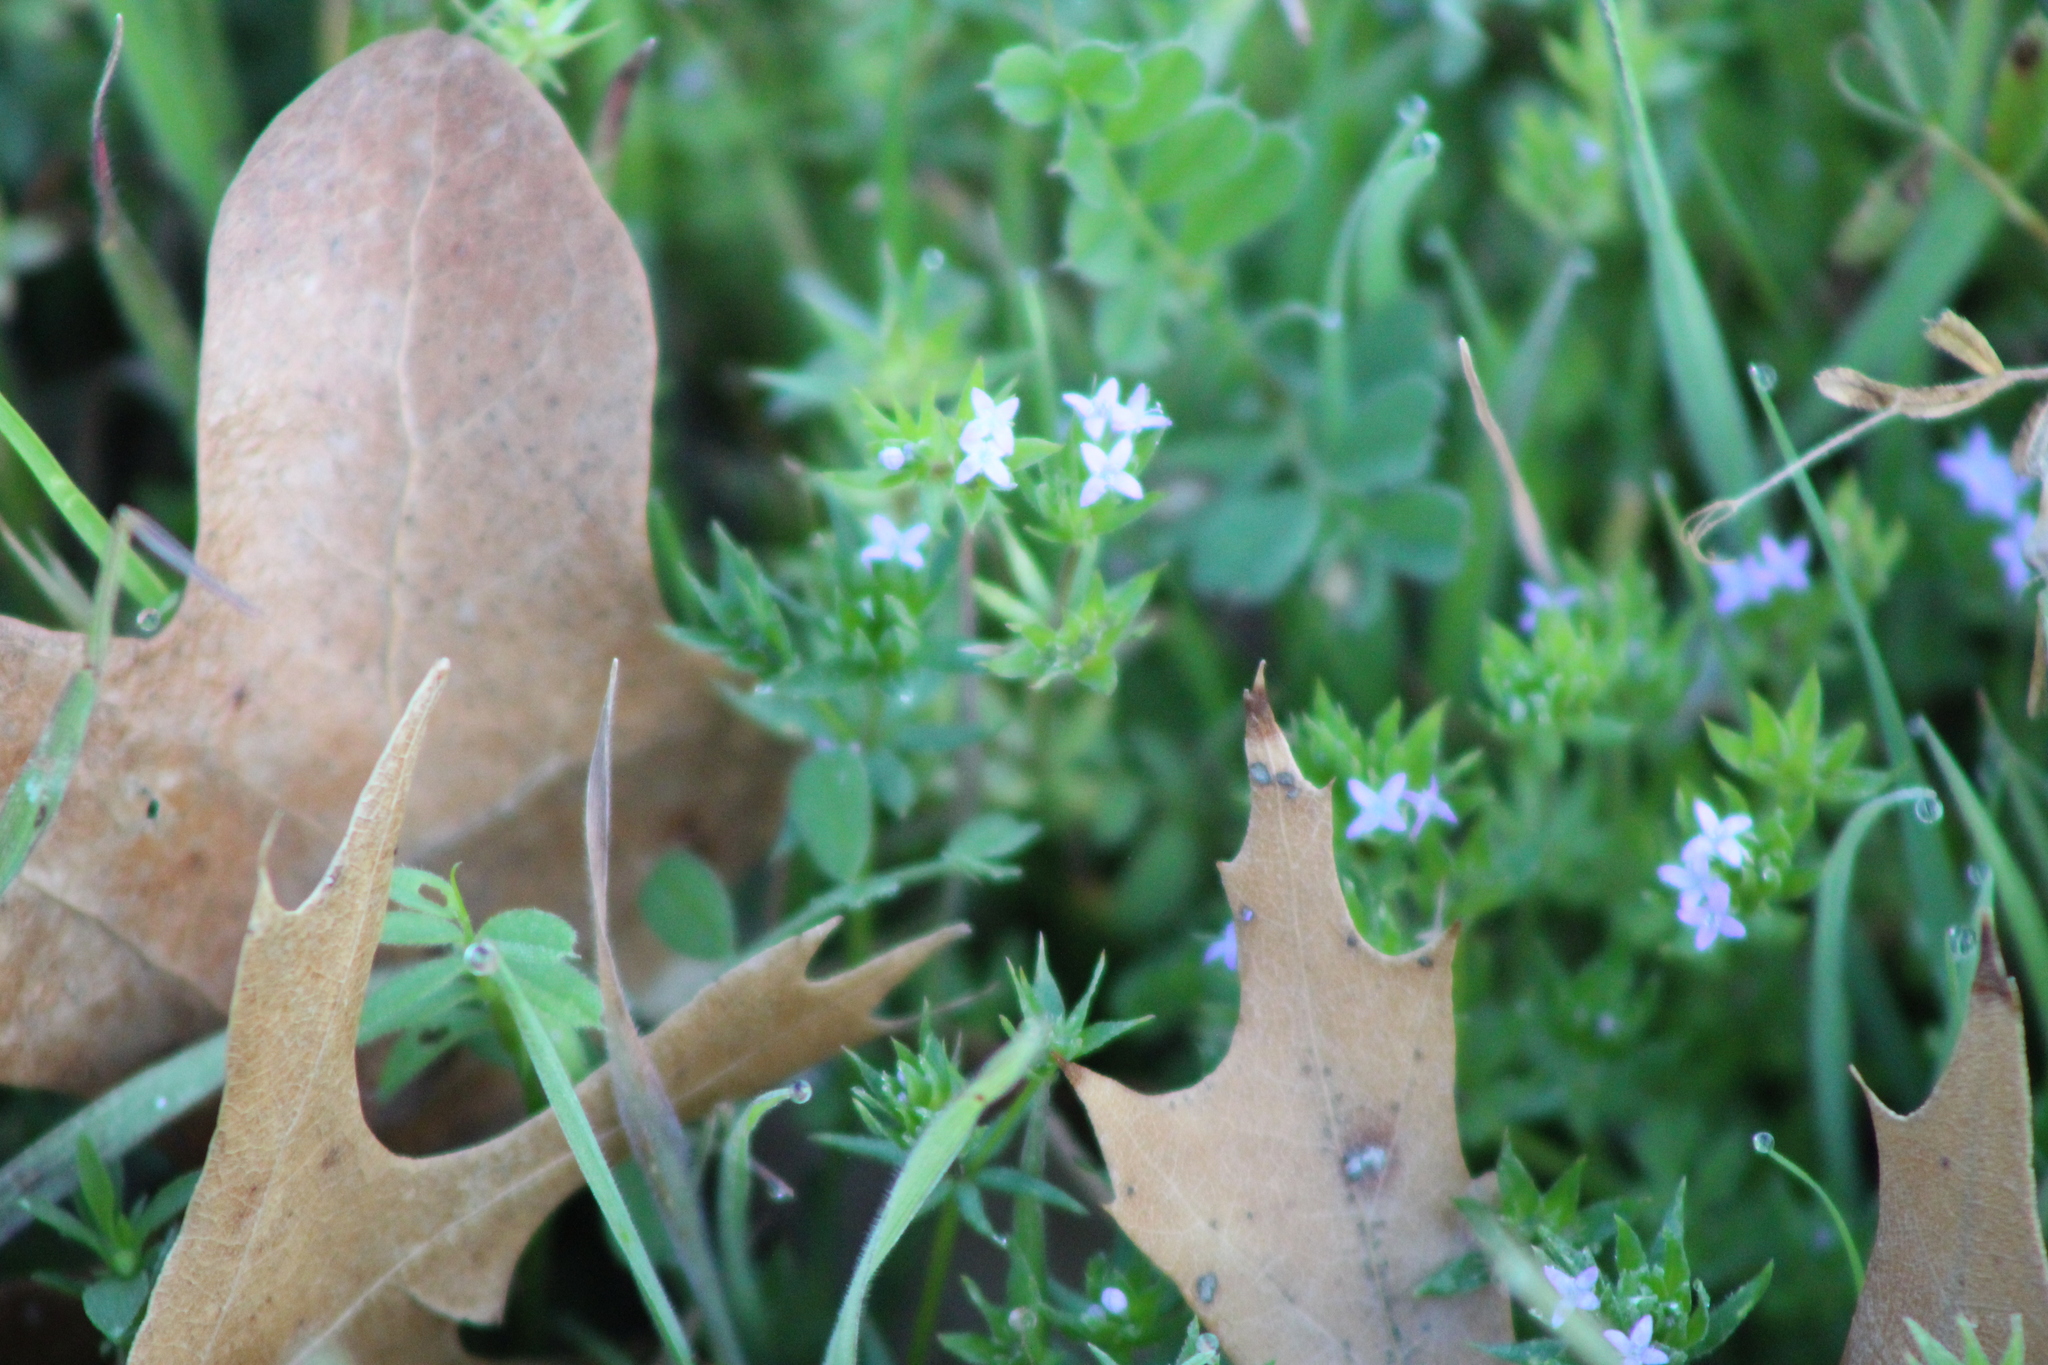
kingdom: Plantae
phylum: Tracheophyta
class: Magnoliopsida
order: Gentianales
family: Rubiaceae
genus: Sherardia
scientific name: Sherardia arvensis
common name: Field madder
